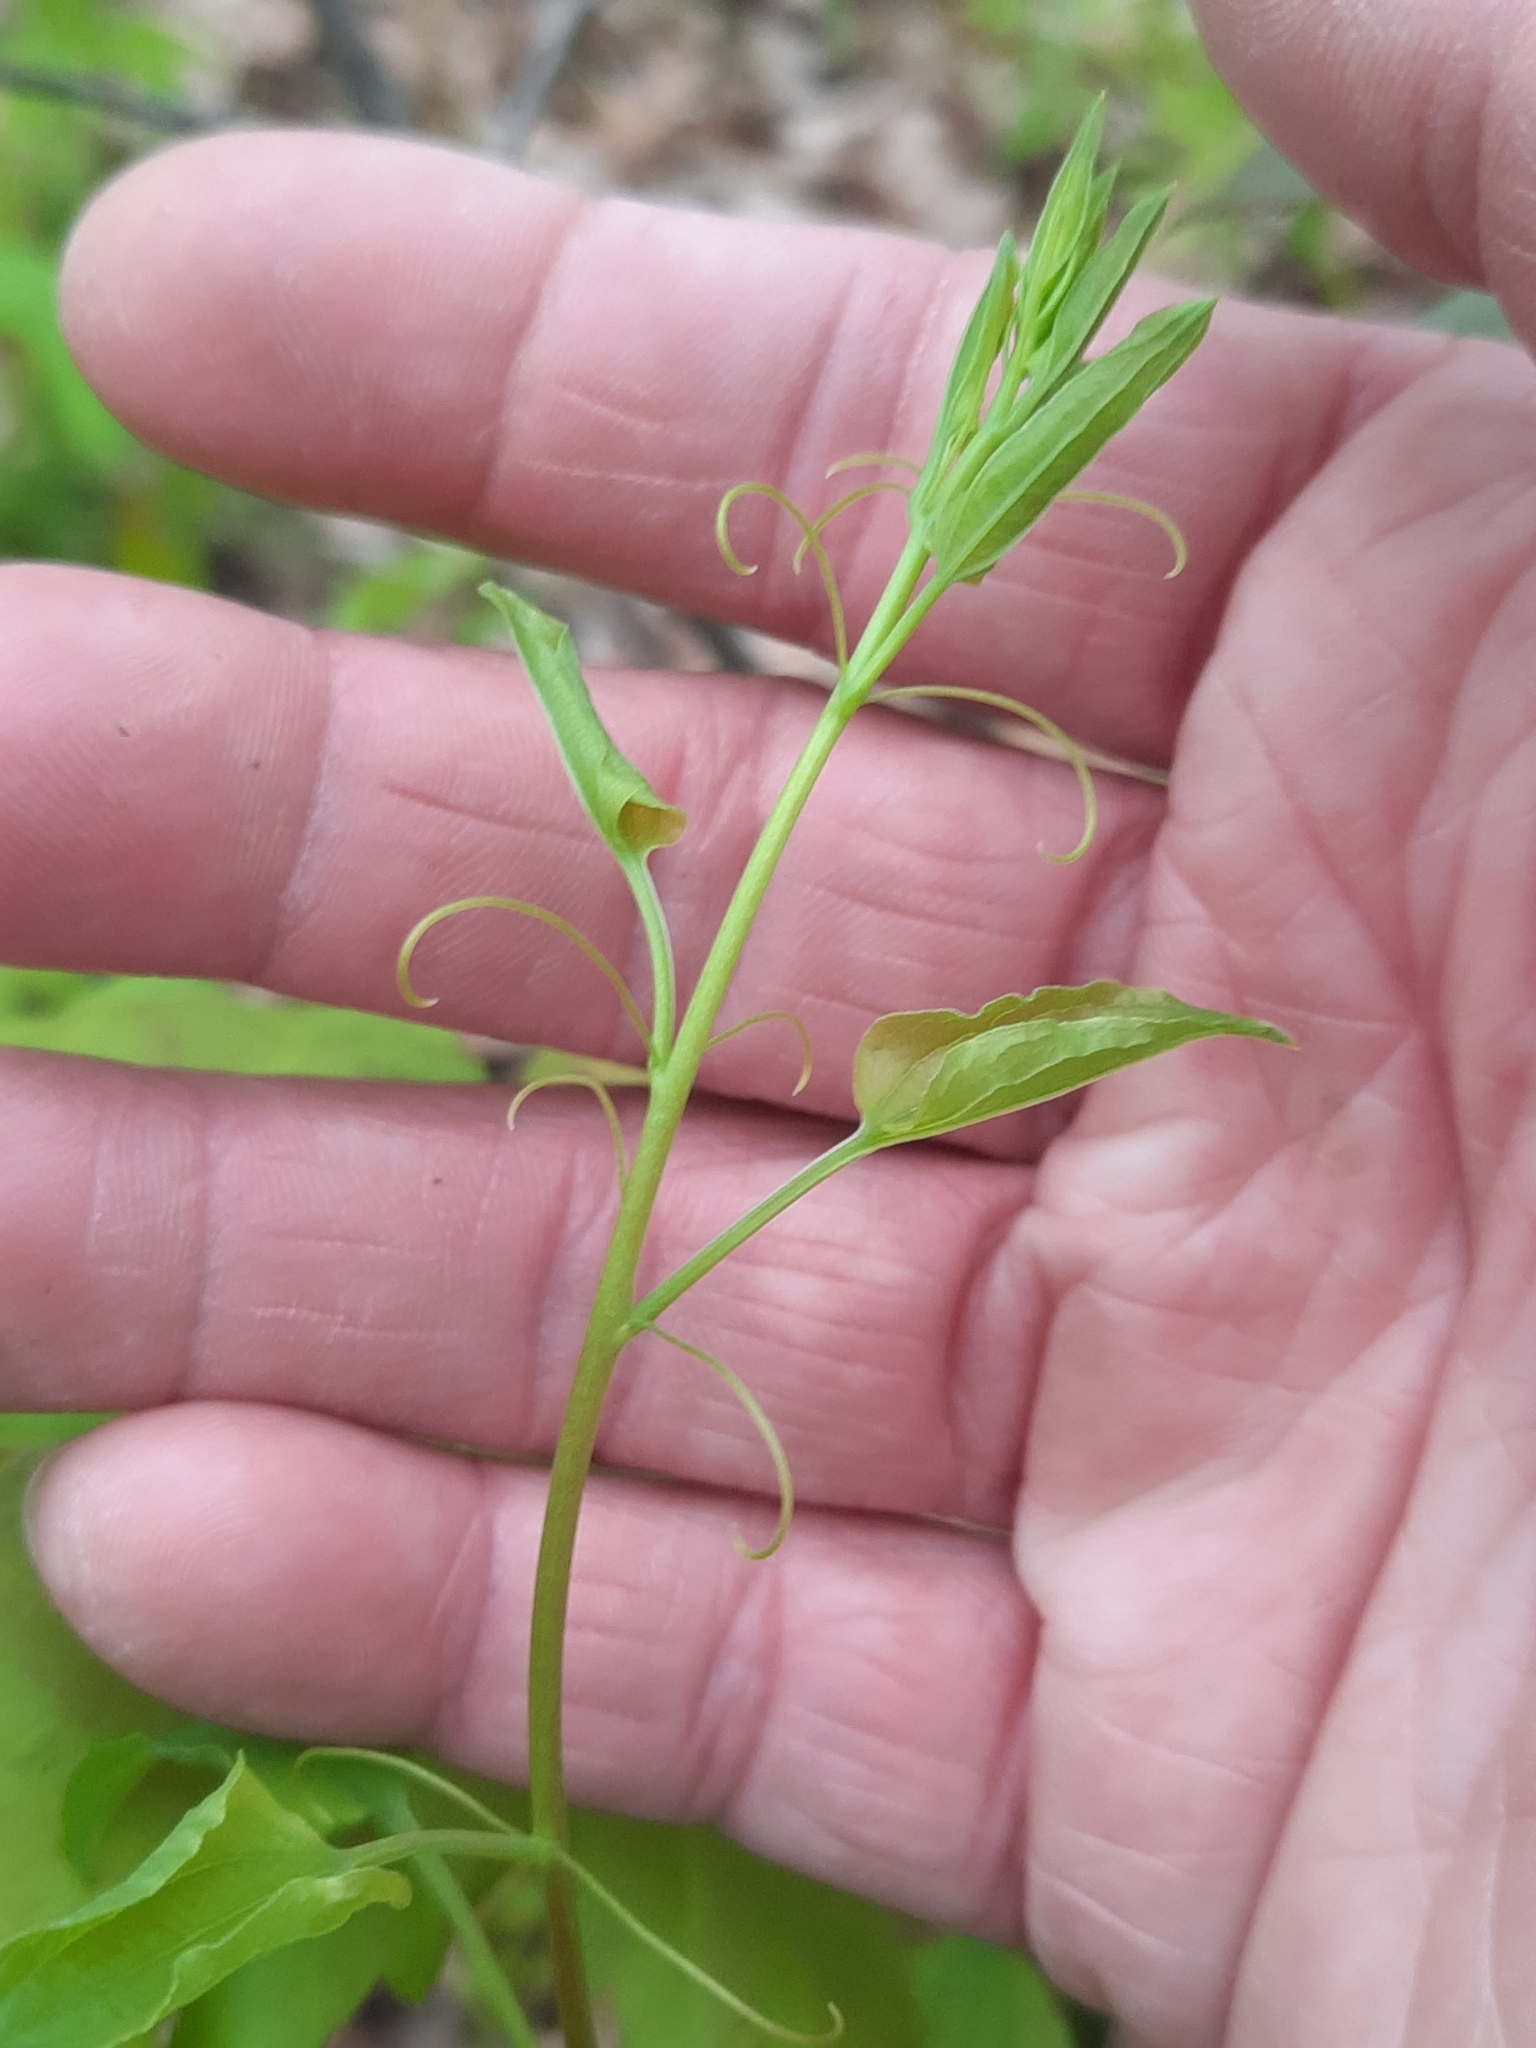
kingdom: Plantae
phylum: Tracheophyta
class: Liliopsida
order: Liliales
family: Smilacaceae
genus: Smilax
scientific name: Smilax herbacea
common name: Jacob's-ladder
